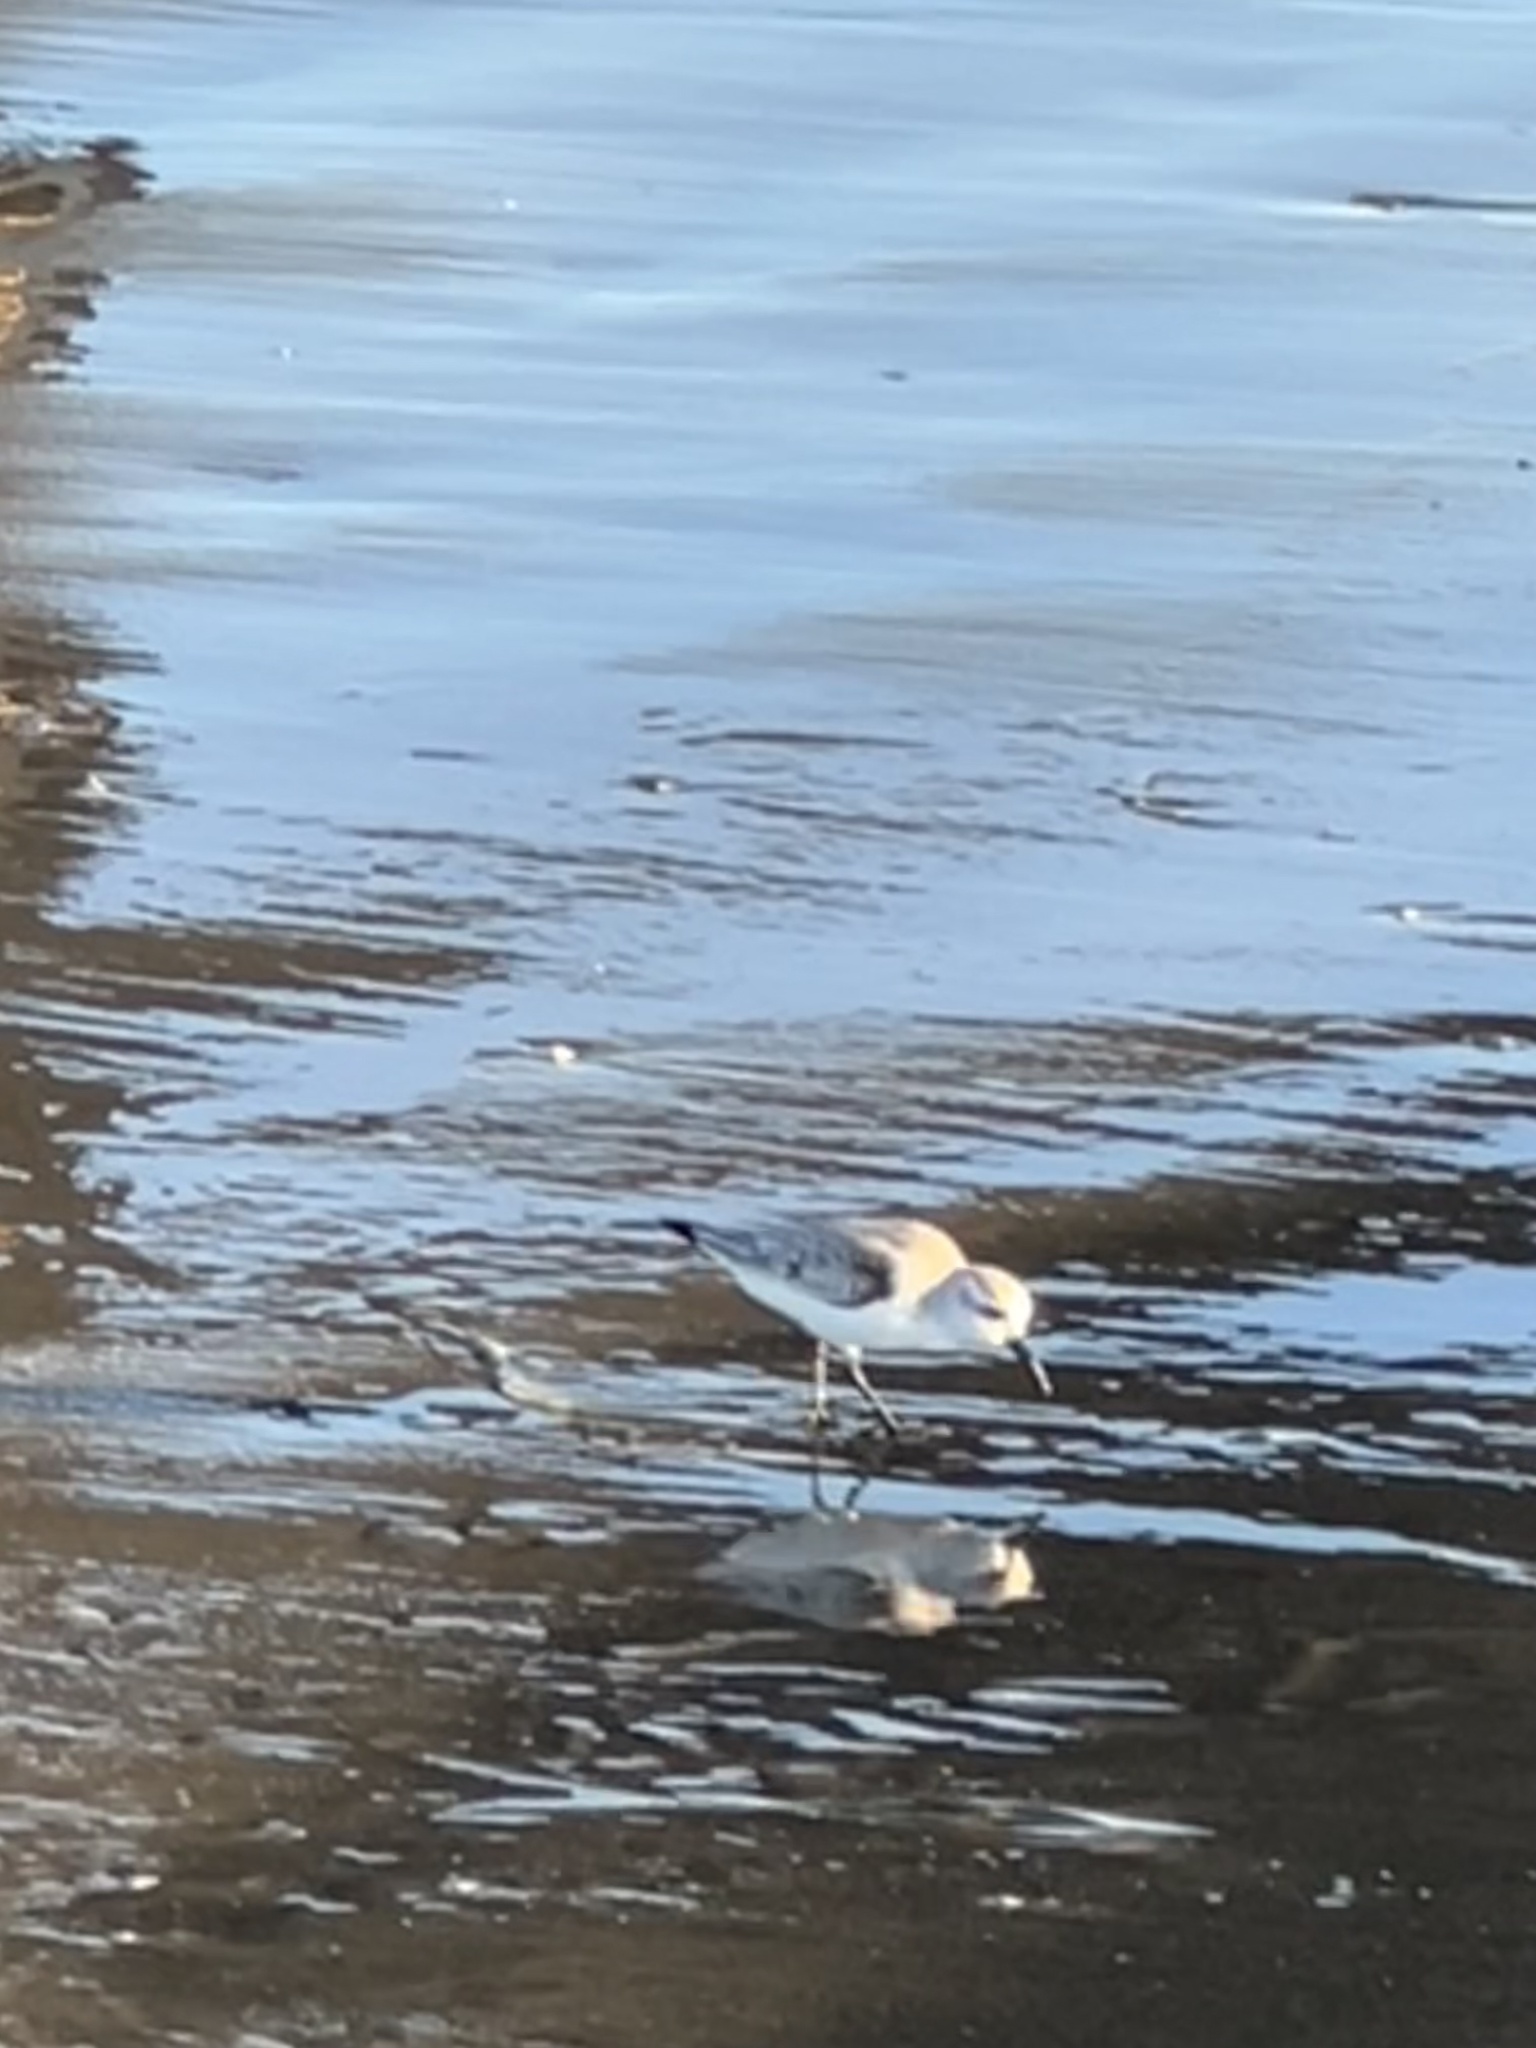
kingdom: Animalia
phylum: Chordata
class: Aves
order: Charadriiformes
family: Scolopacidae
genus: Calidris
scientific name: Calidris alba
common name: Sanderling
